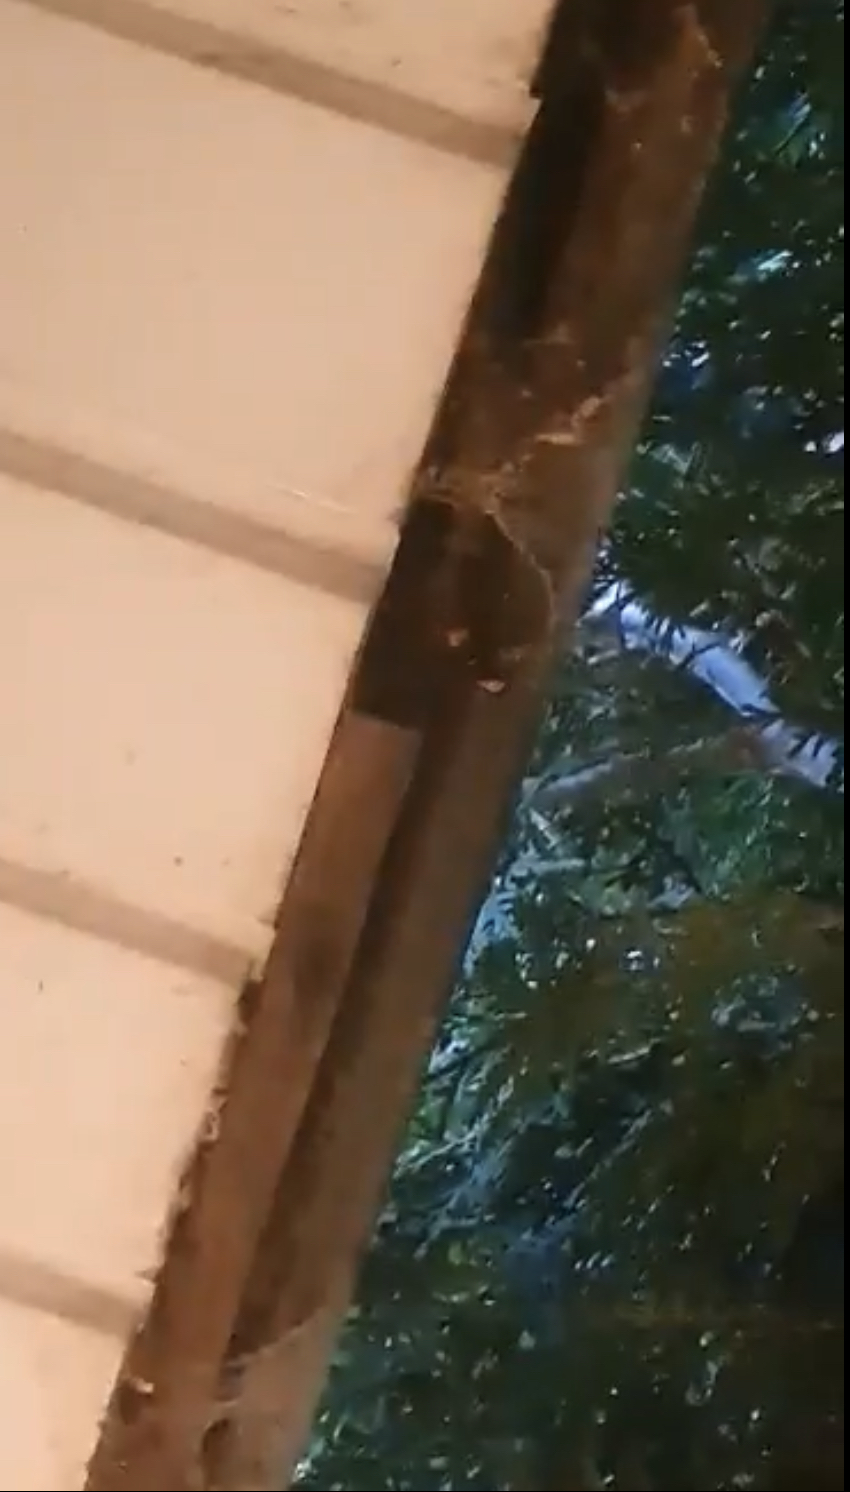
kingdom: Animalia
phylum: Arthropoda
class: Insecta
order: Hymenoptera
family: Vespidae
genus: Vespa
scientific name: Vespa velutina
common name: Asian hornet
